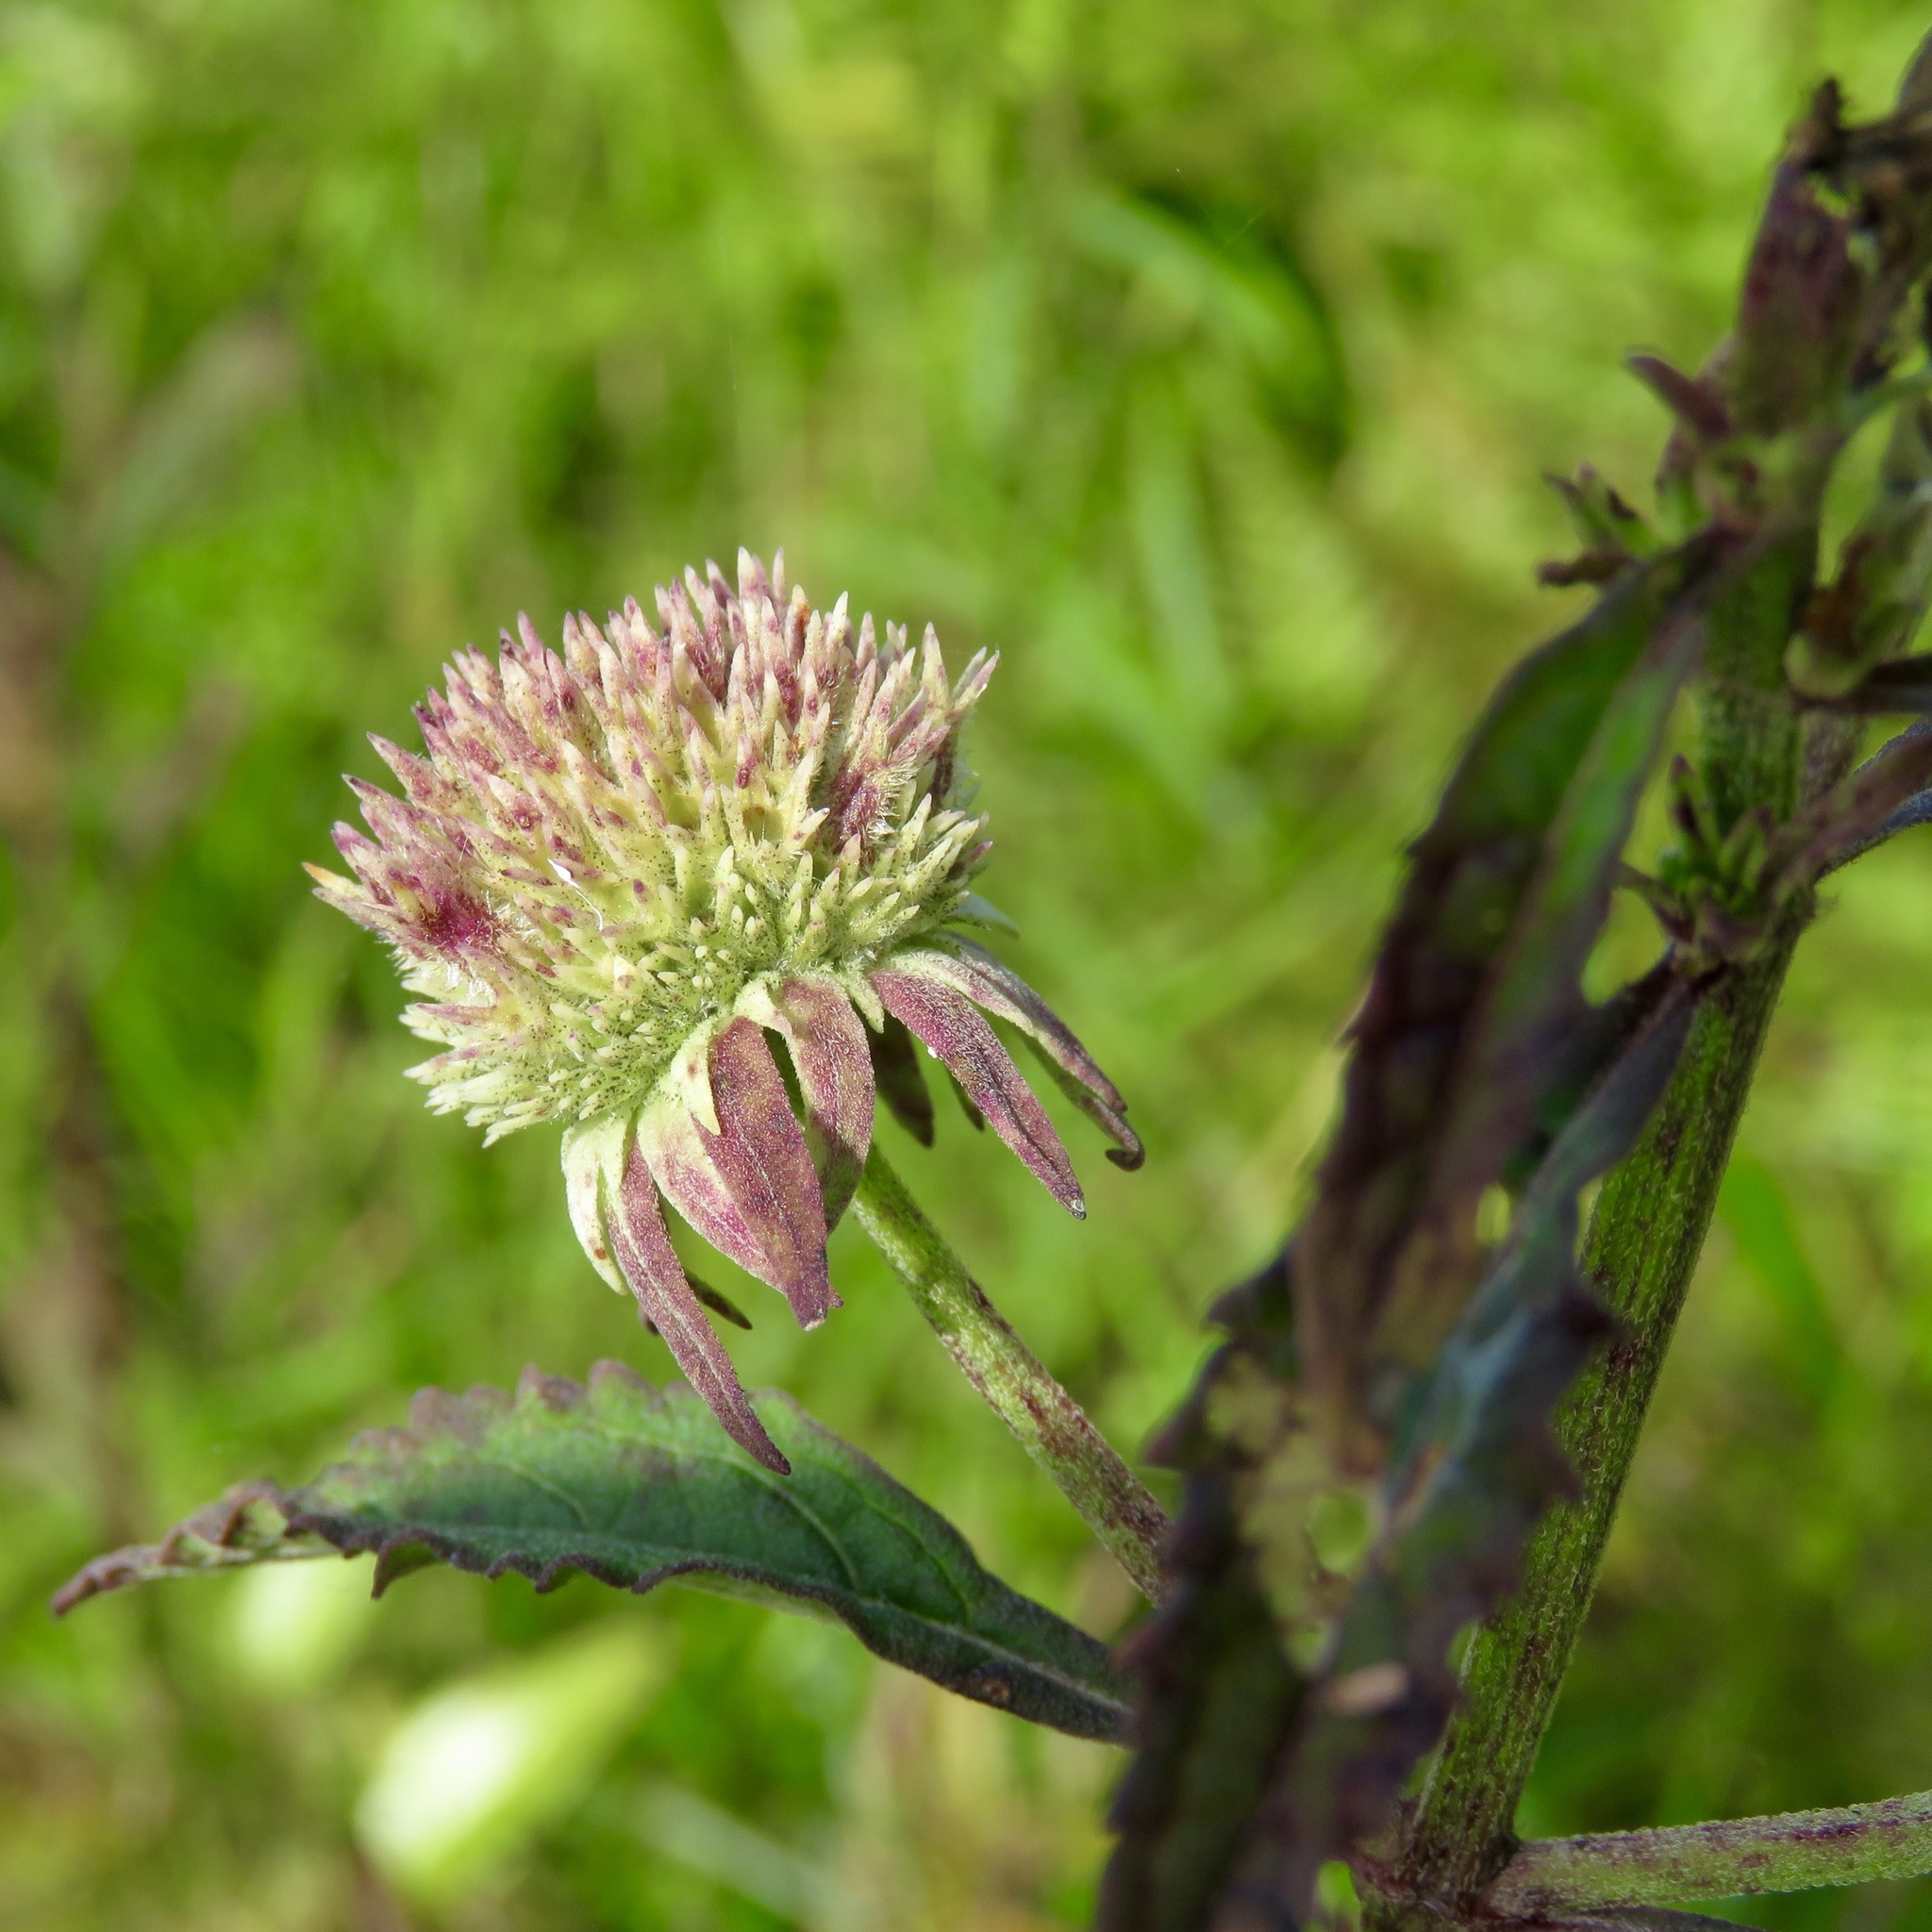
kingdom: Plantae
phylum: Tracheophyta
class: Magnoliopsida
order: Lamiales
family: Lamiaceae
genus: Hyptis
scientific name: Hyptis alata
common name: Cluster bush-mint
